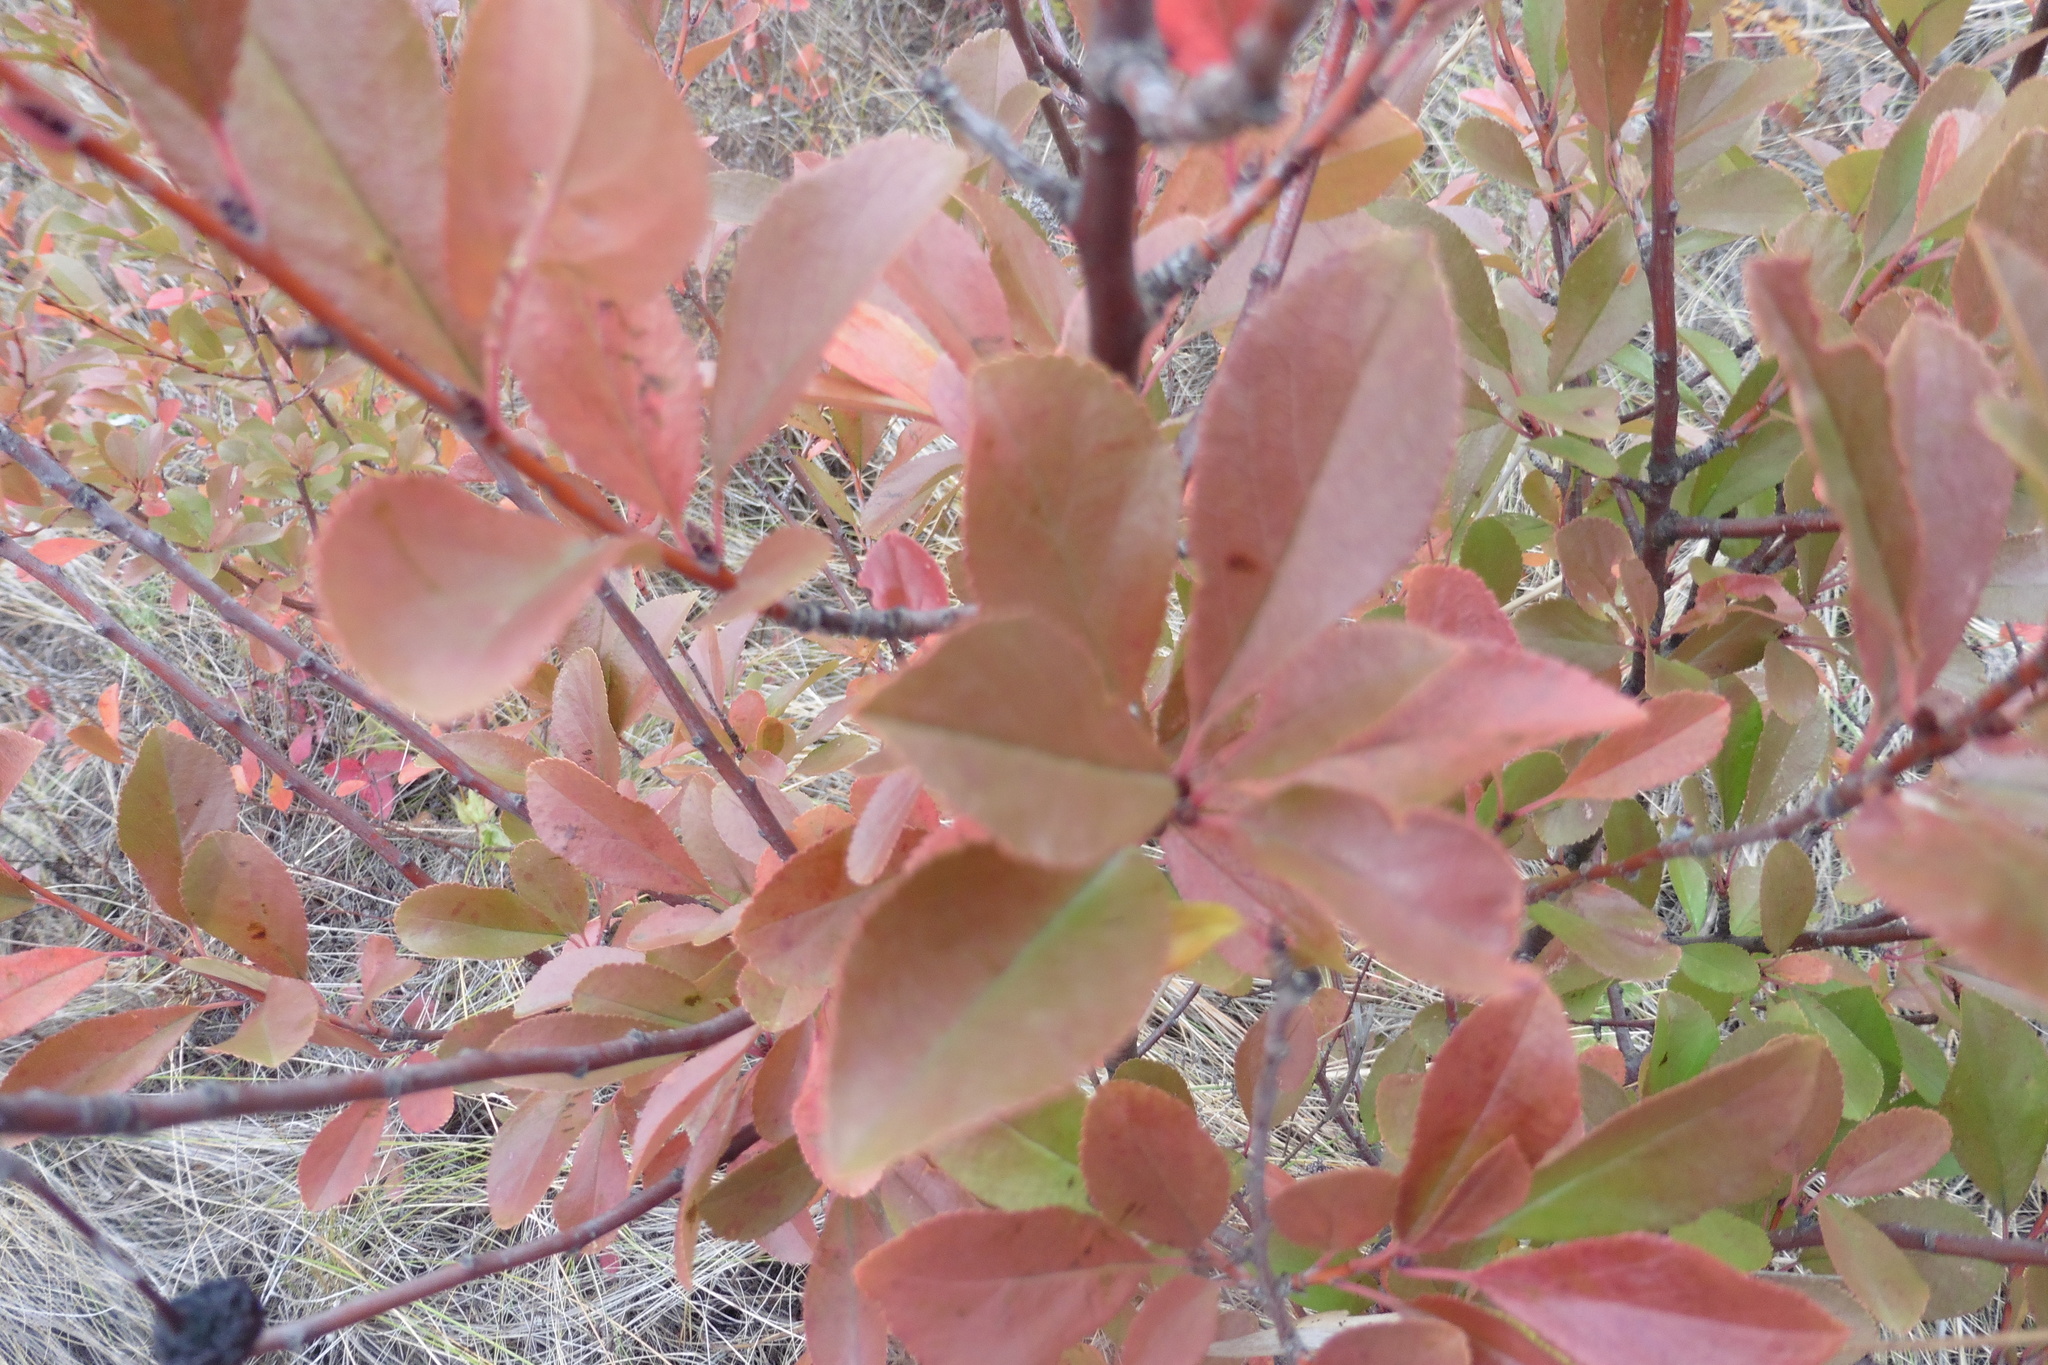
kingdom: Plantae
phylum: Tracheophyta
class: Magnoliopsida
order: Rosales
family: Rosaceae
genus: Prunus
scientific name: Prunus fruticosa
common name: European dwarf cherry
